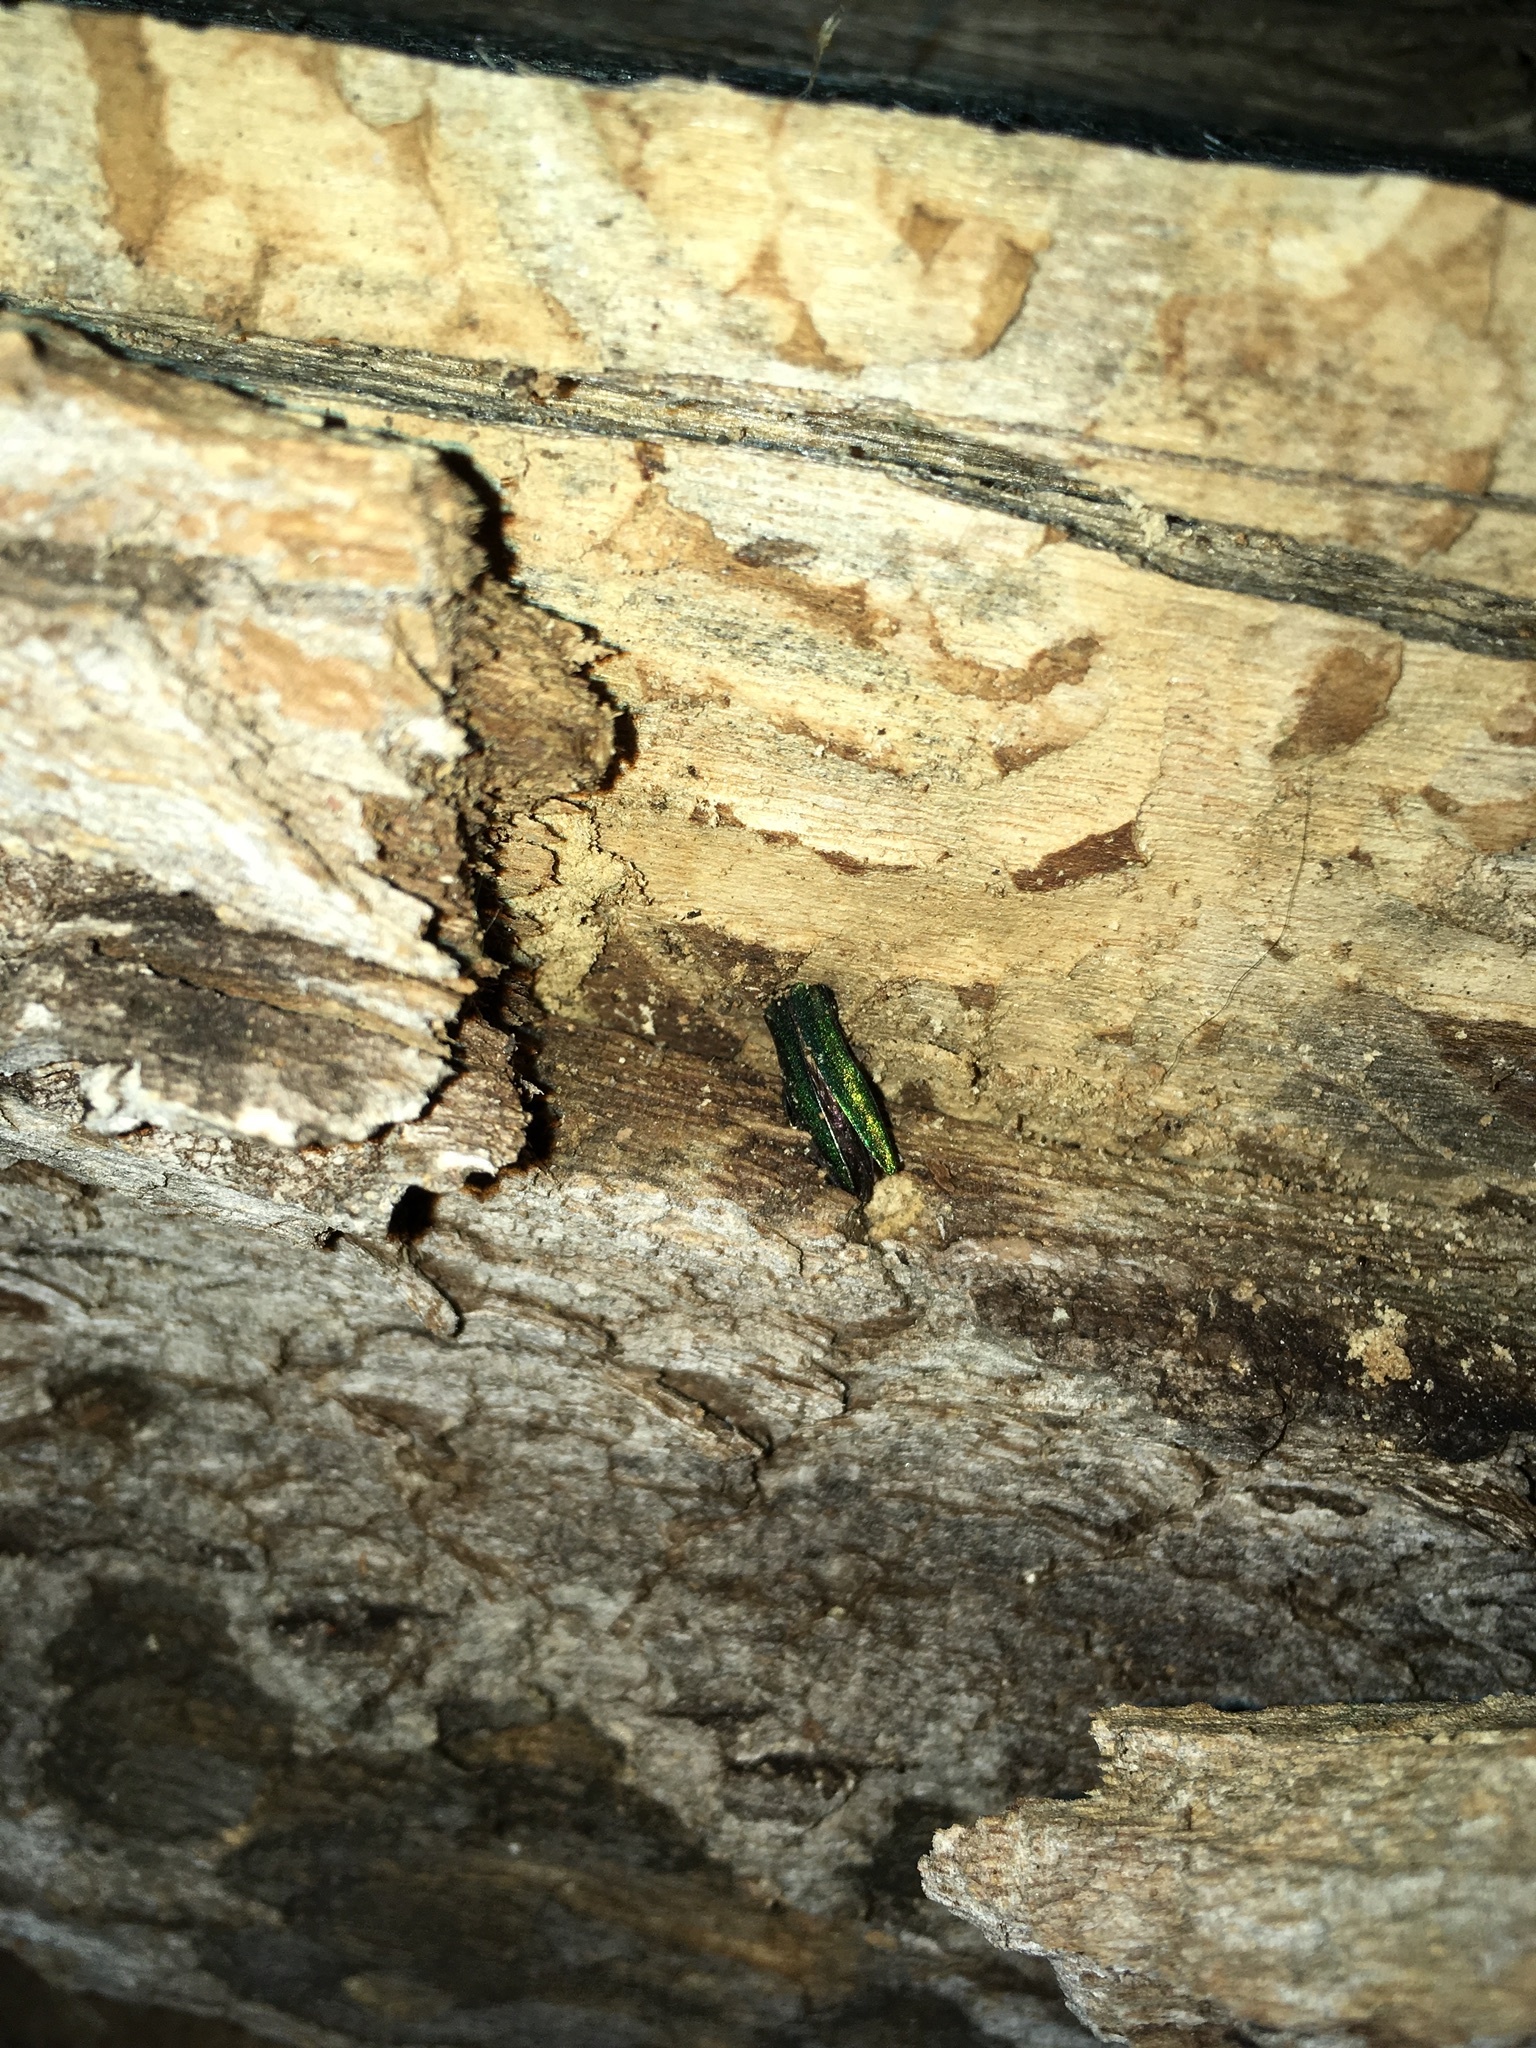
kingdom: Animalia
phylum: Arthropoda
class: Insecta
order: Coleoptera
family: Buprestidae
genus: Agrilus
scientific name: Agrilus planipennis
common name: Emerald ash borer
